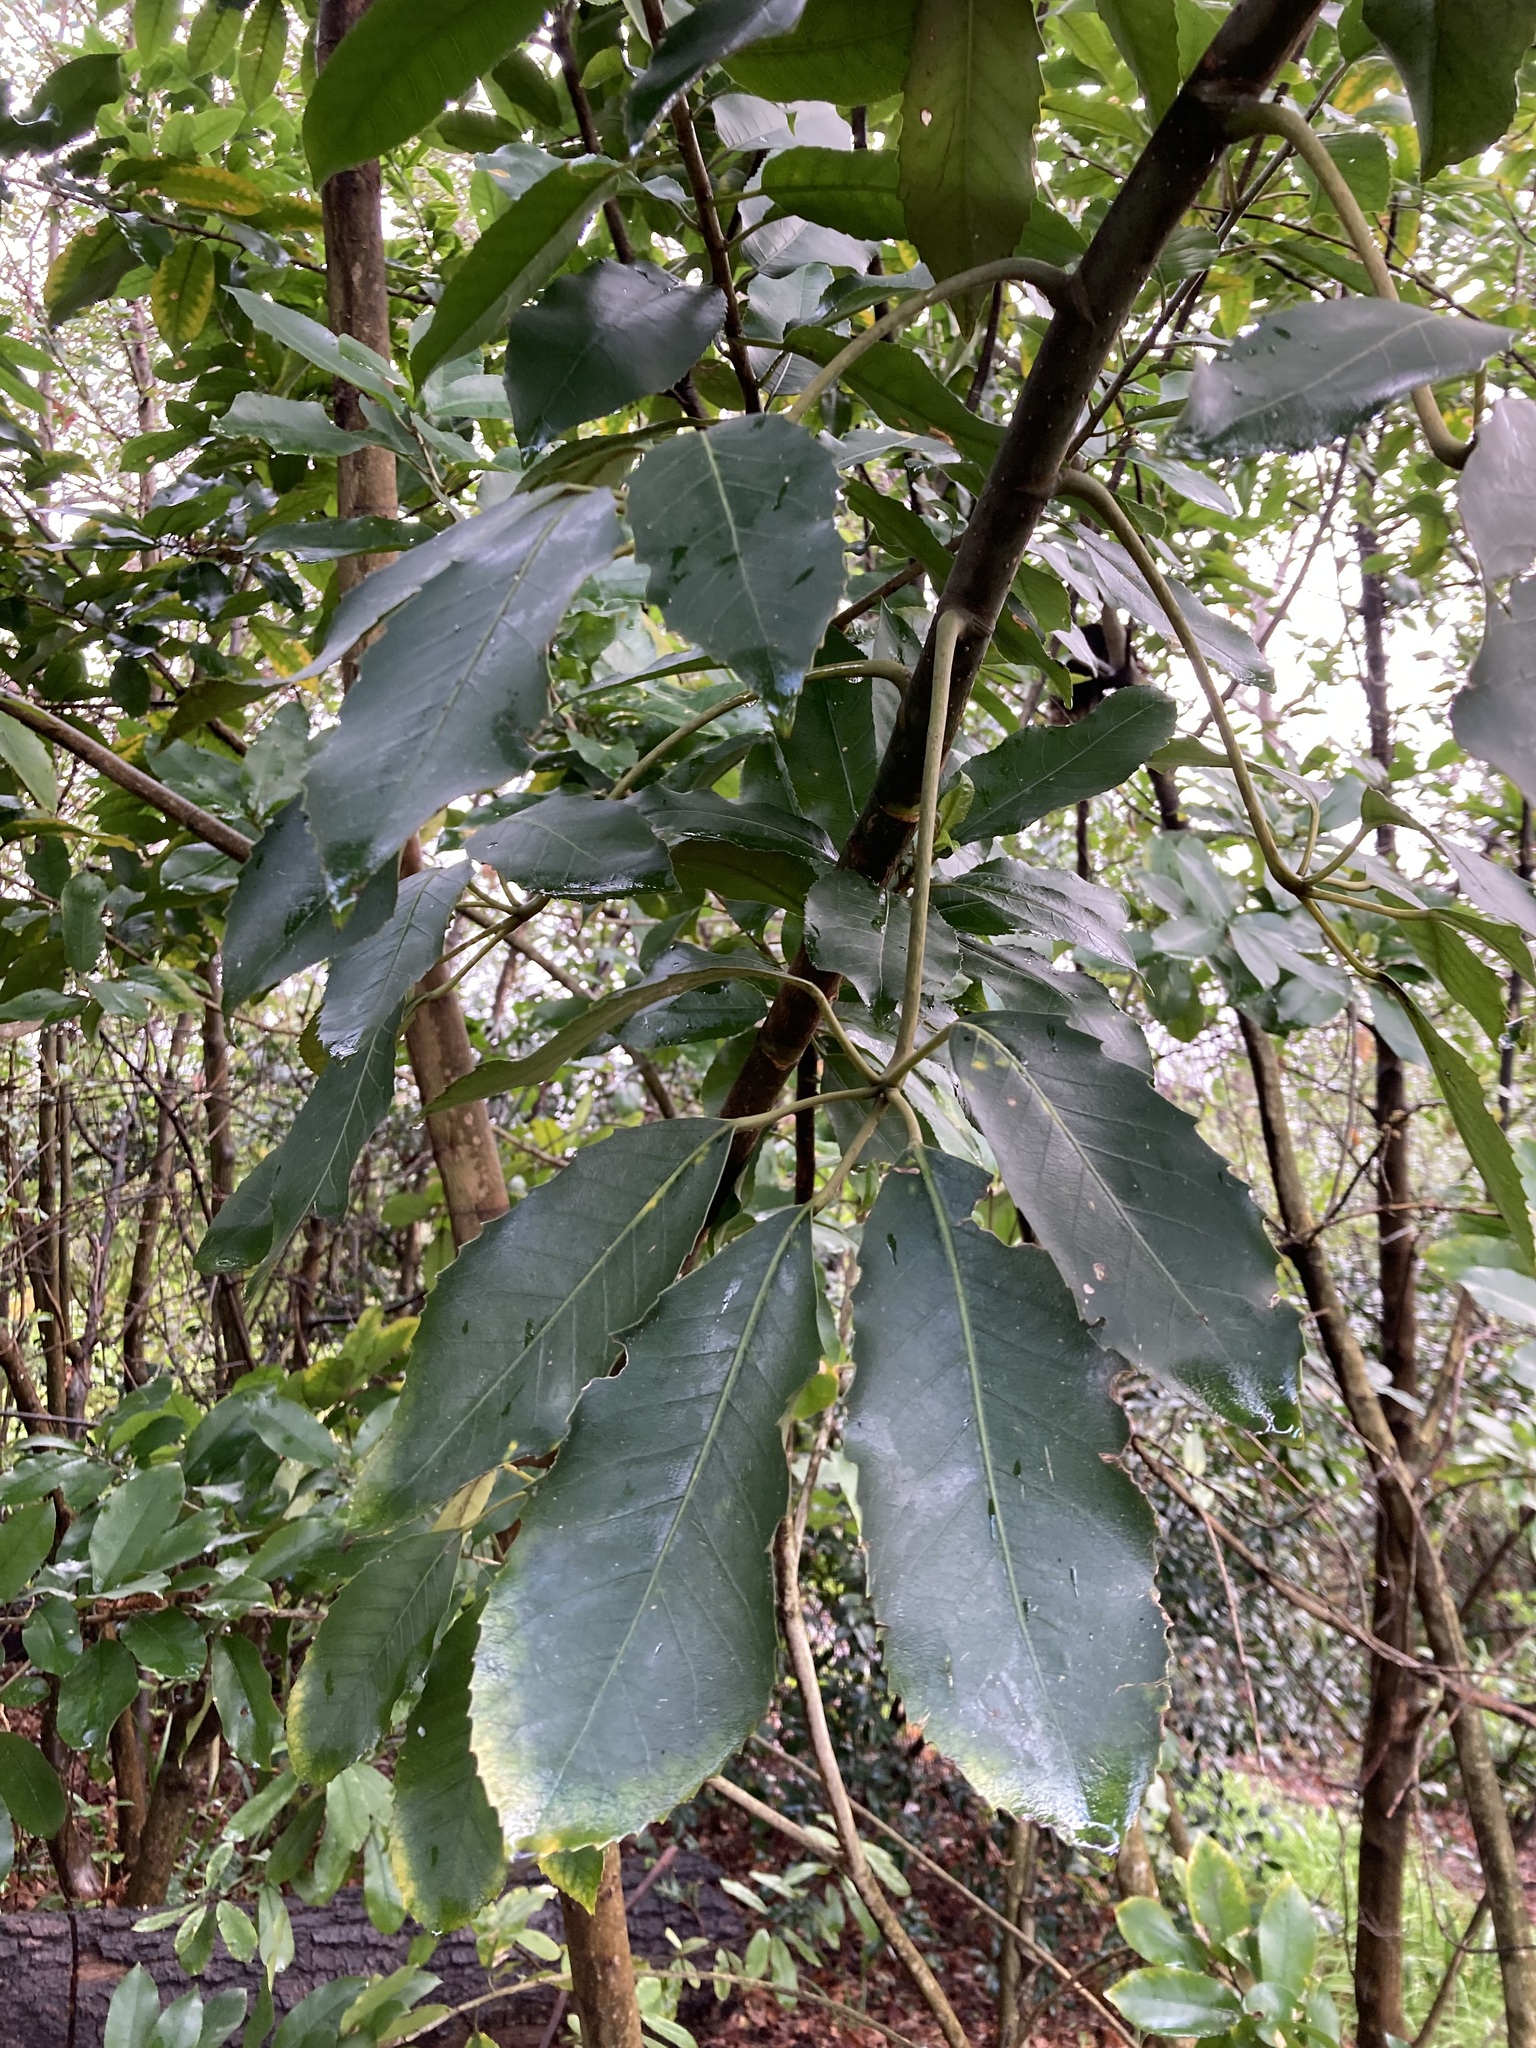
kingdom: Plantae
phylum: Tracheophyta
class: Magnoliopsida
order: Apiales
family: Araliaceae
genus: Neopanax
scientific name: Neopanax arboreus
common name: Five-fingers
